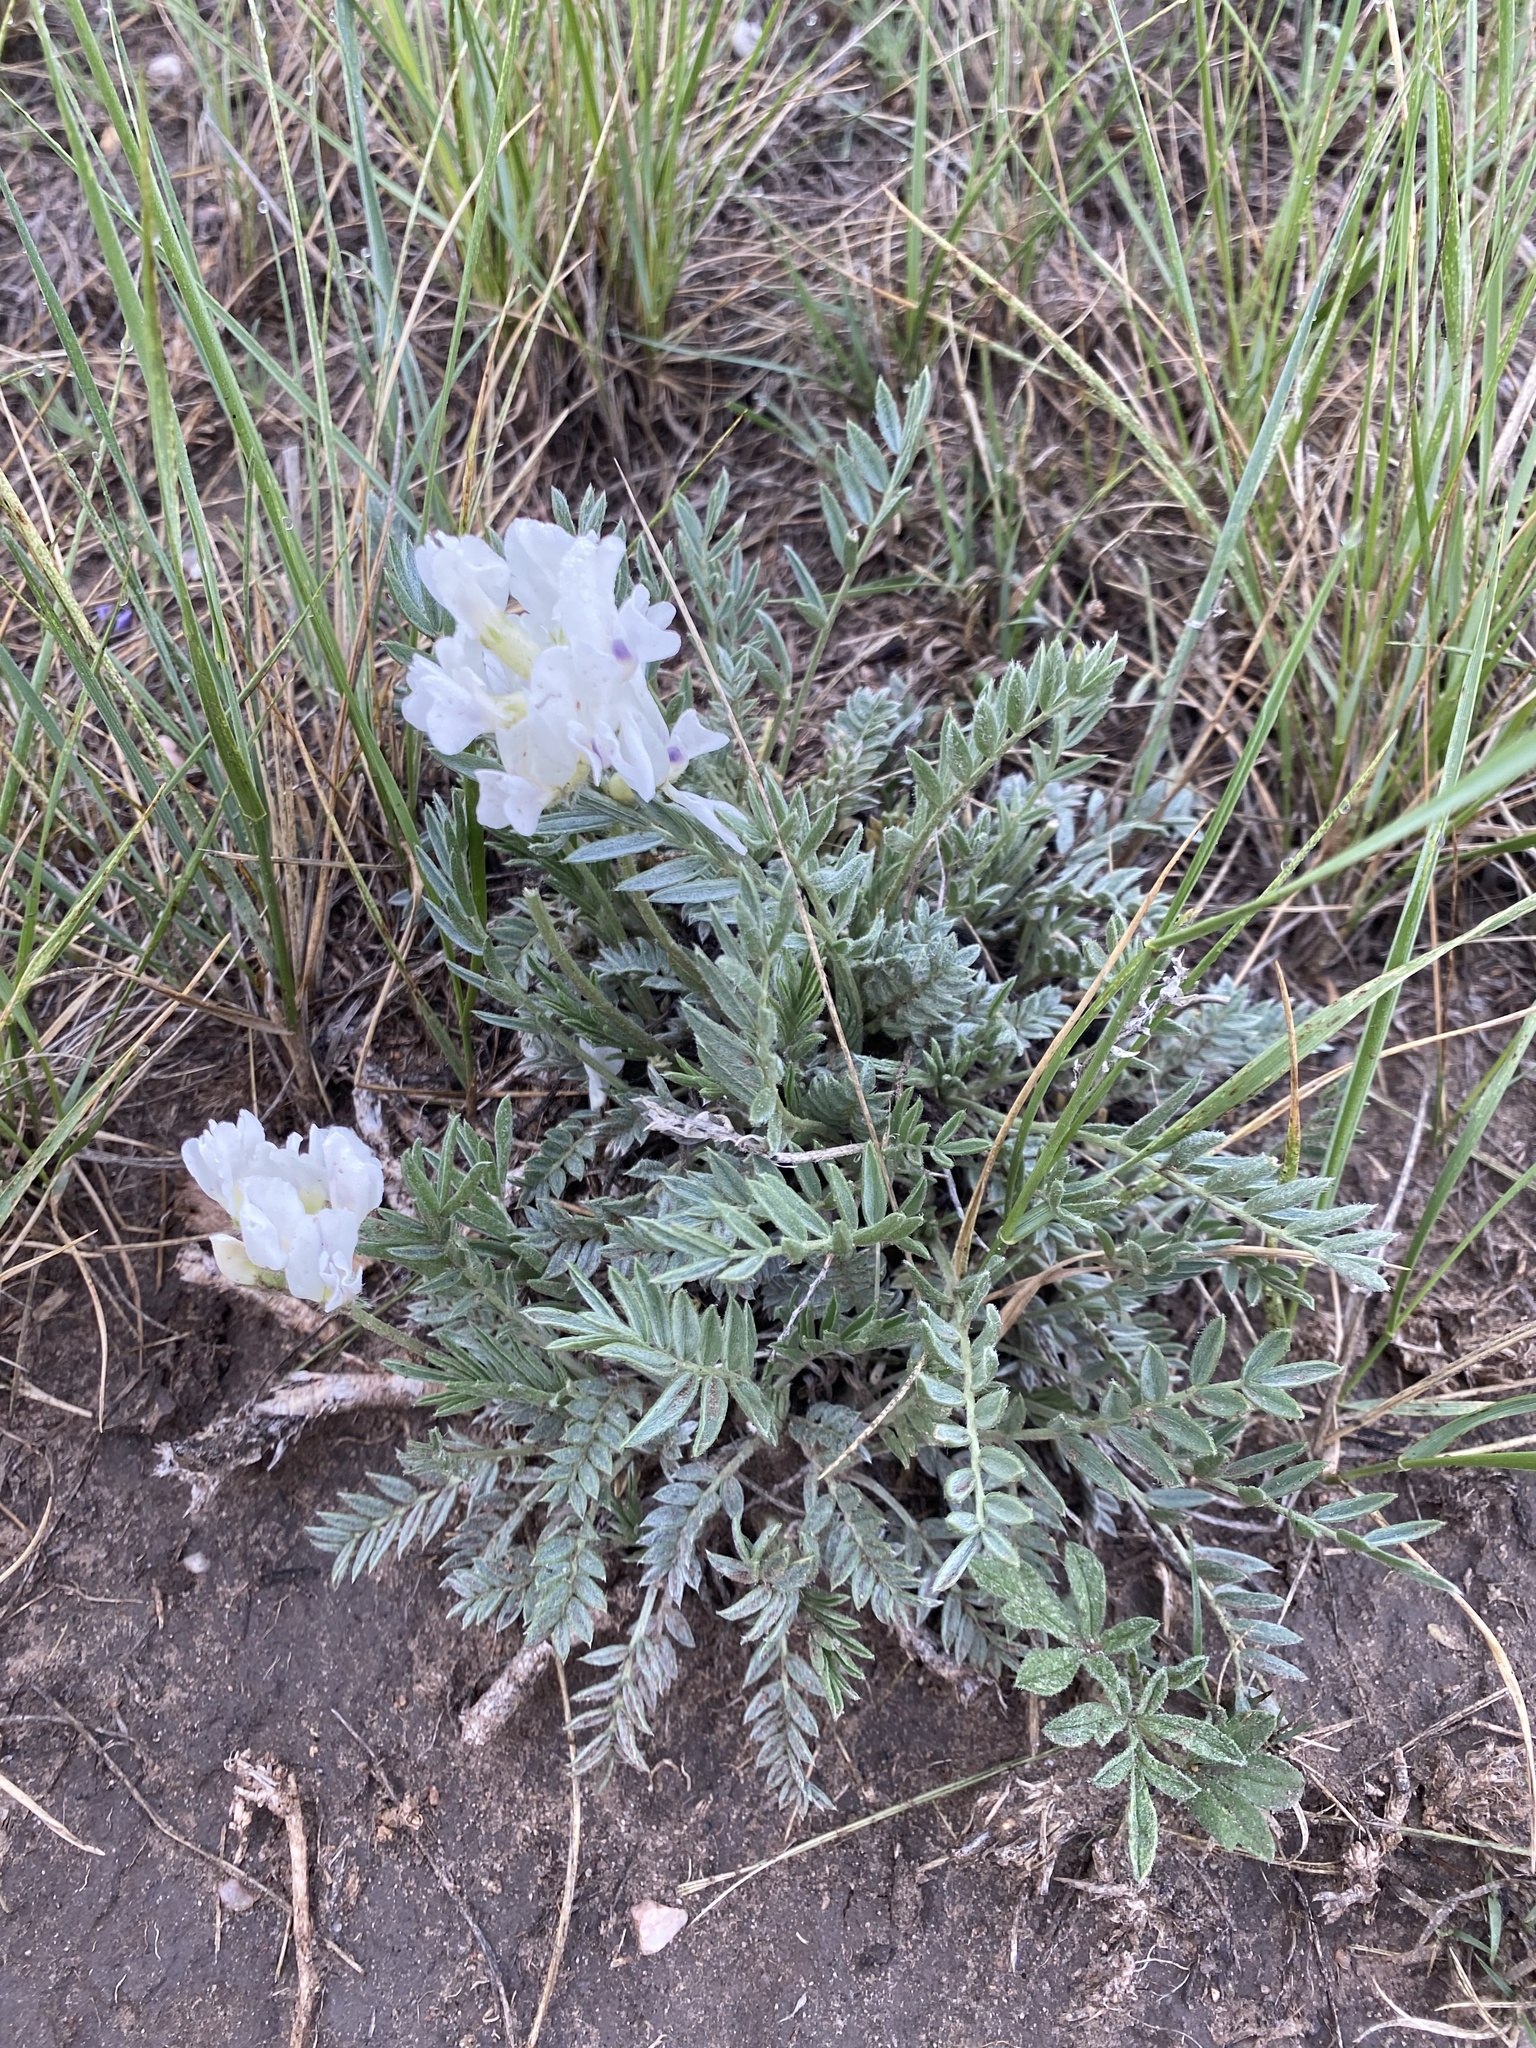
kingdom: Plantae
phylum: Tracheophyta
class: Magnoliopsida
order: Fabales
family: Fabaceae
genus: Oxytropis
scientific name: Oxytropis sericea
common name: Silky locoweed
